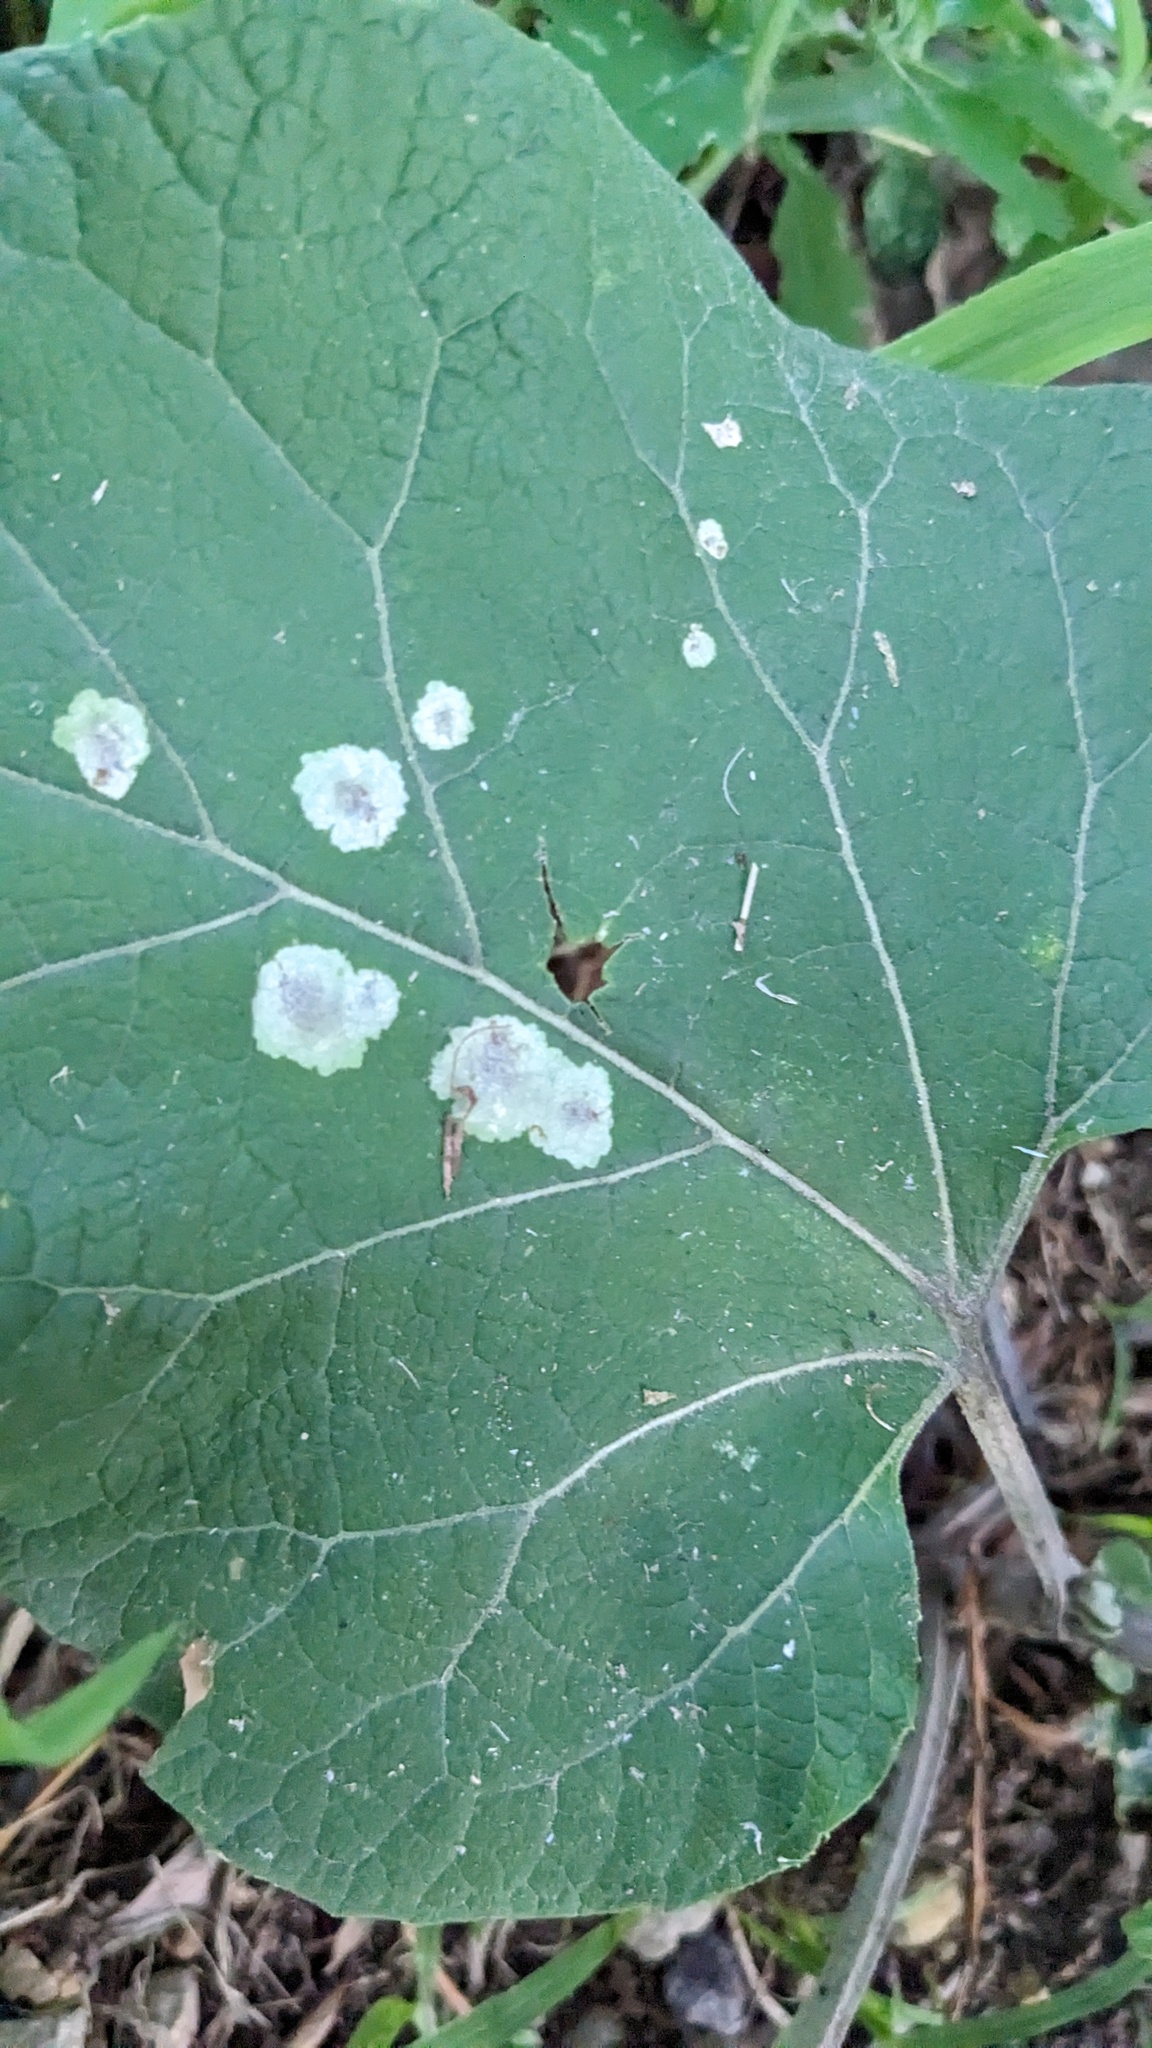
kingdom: Animalia
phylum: Arthropoda
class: Insecta
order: Diptera
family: Agromyzidae
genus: Calycomyza
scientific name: Calycomyza flavinotum
